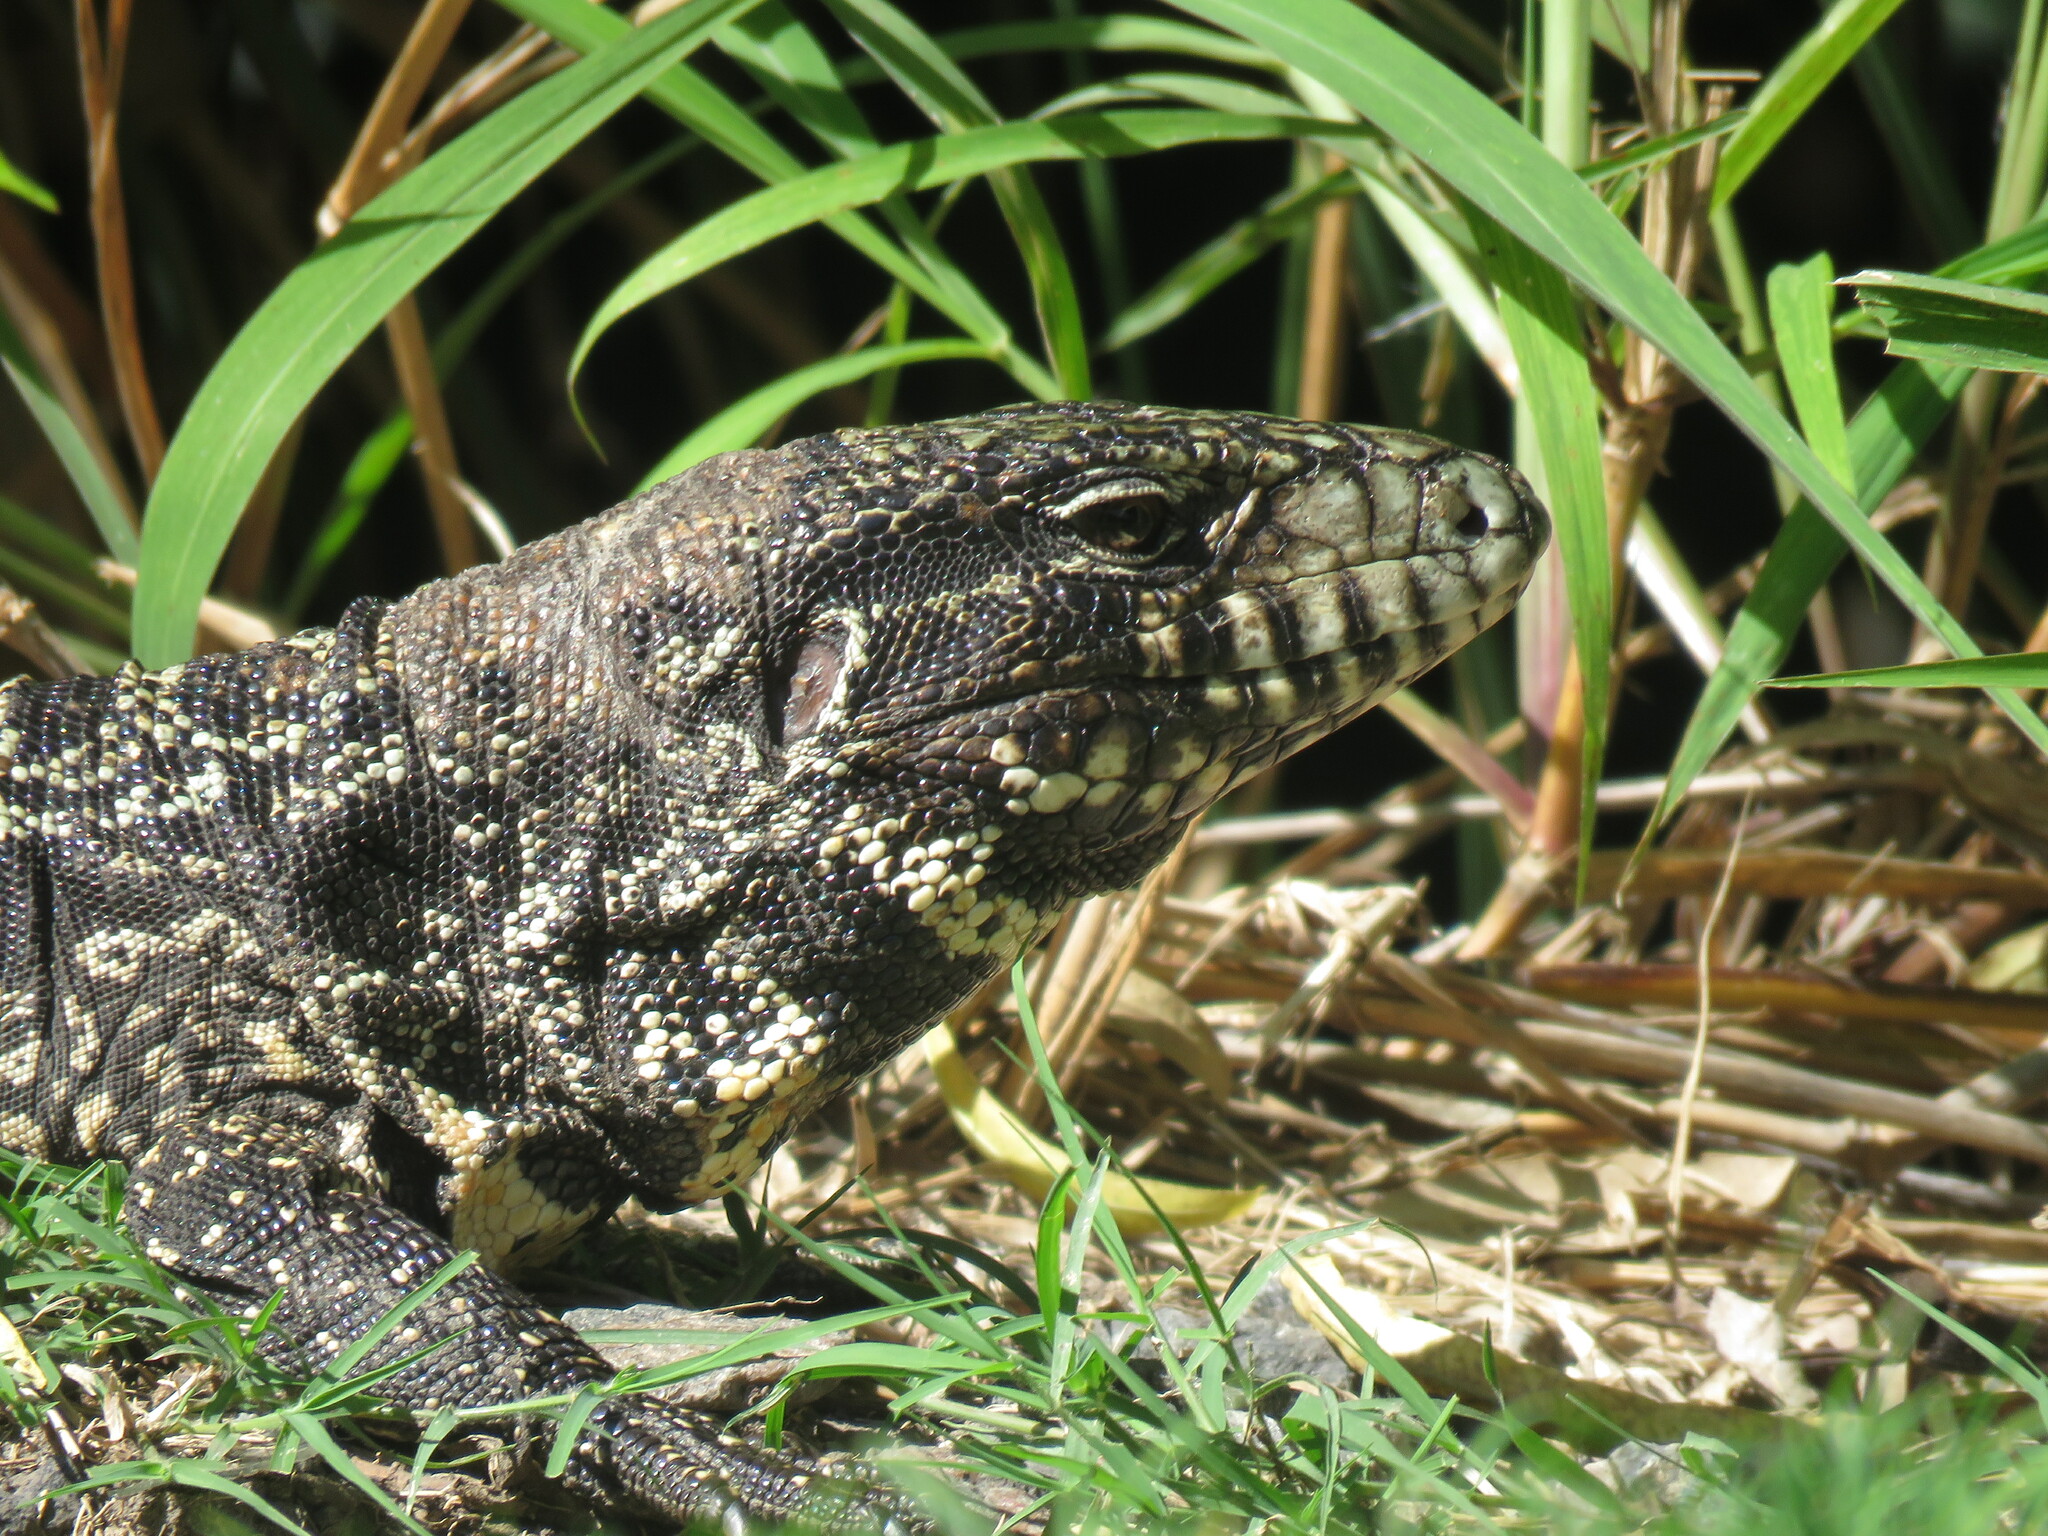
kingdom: Animalia
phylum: Chordata
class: Squamata
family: Teiidae
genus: Salvator
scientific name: Salvator merianae
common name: Argentine black and white tegu
